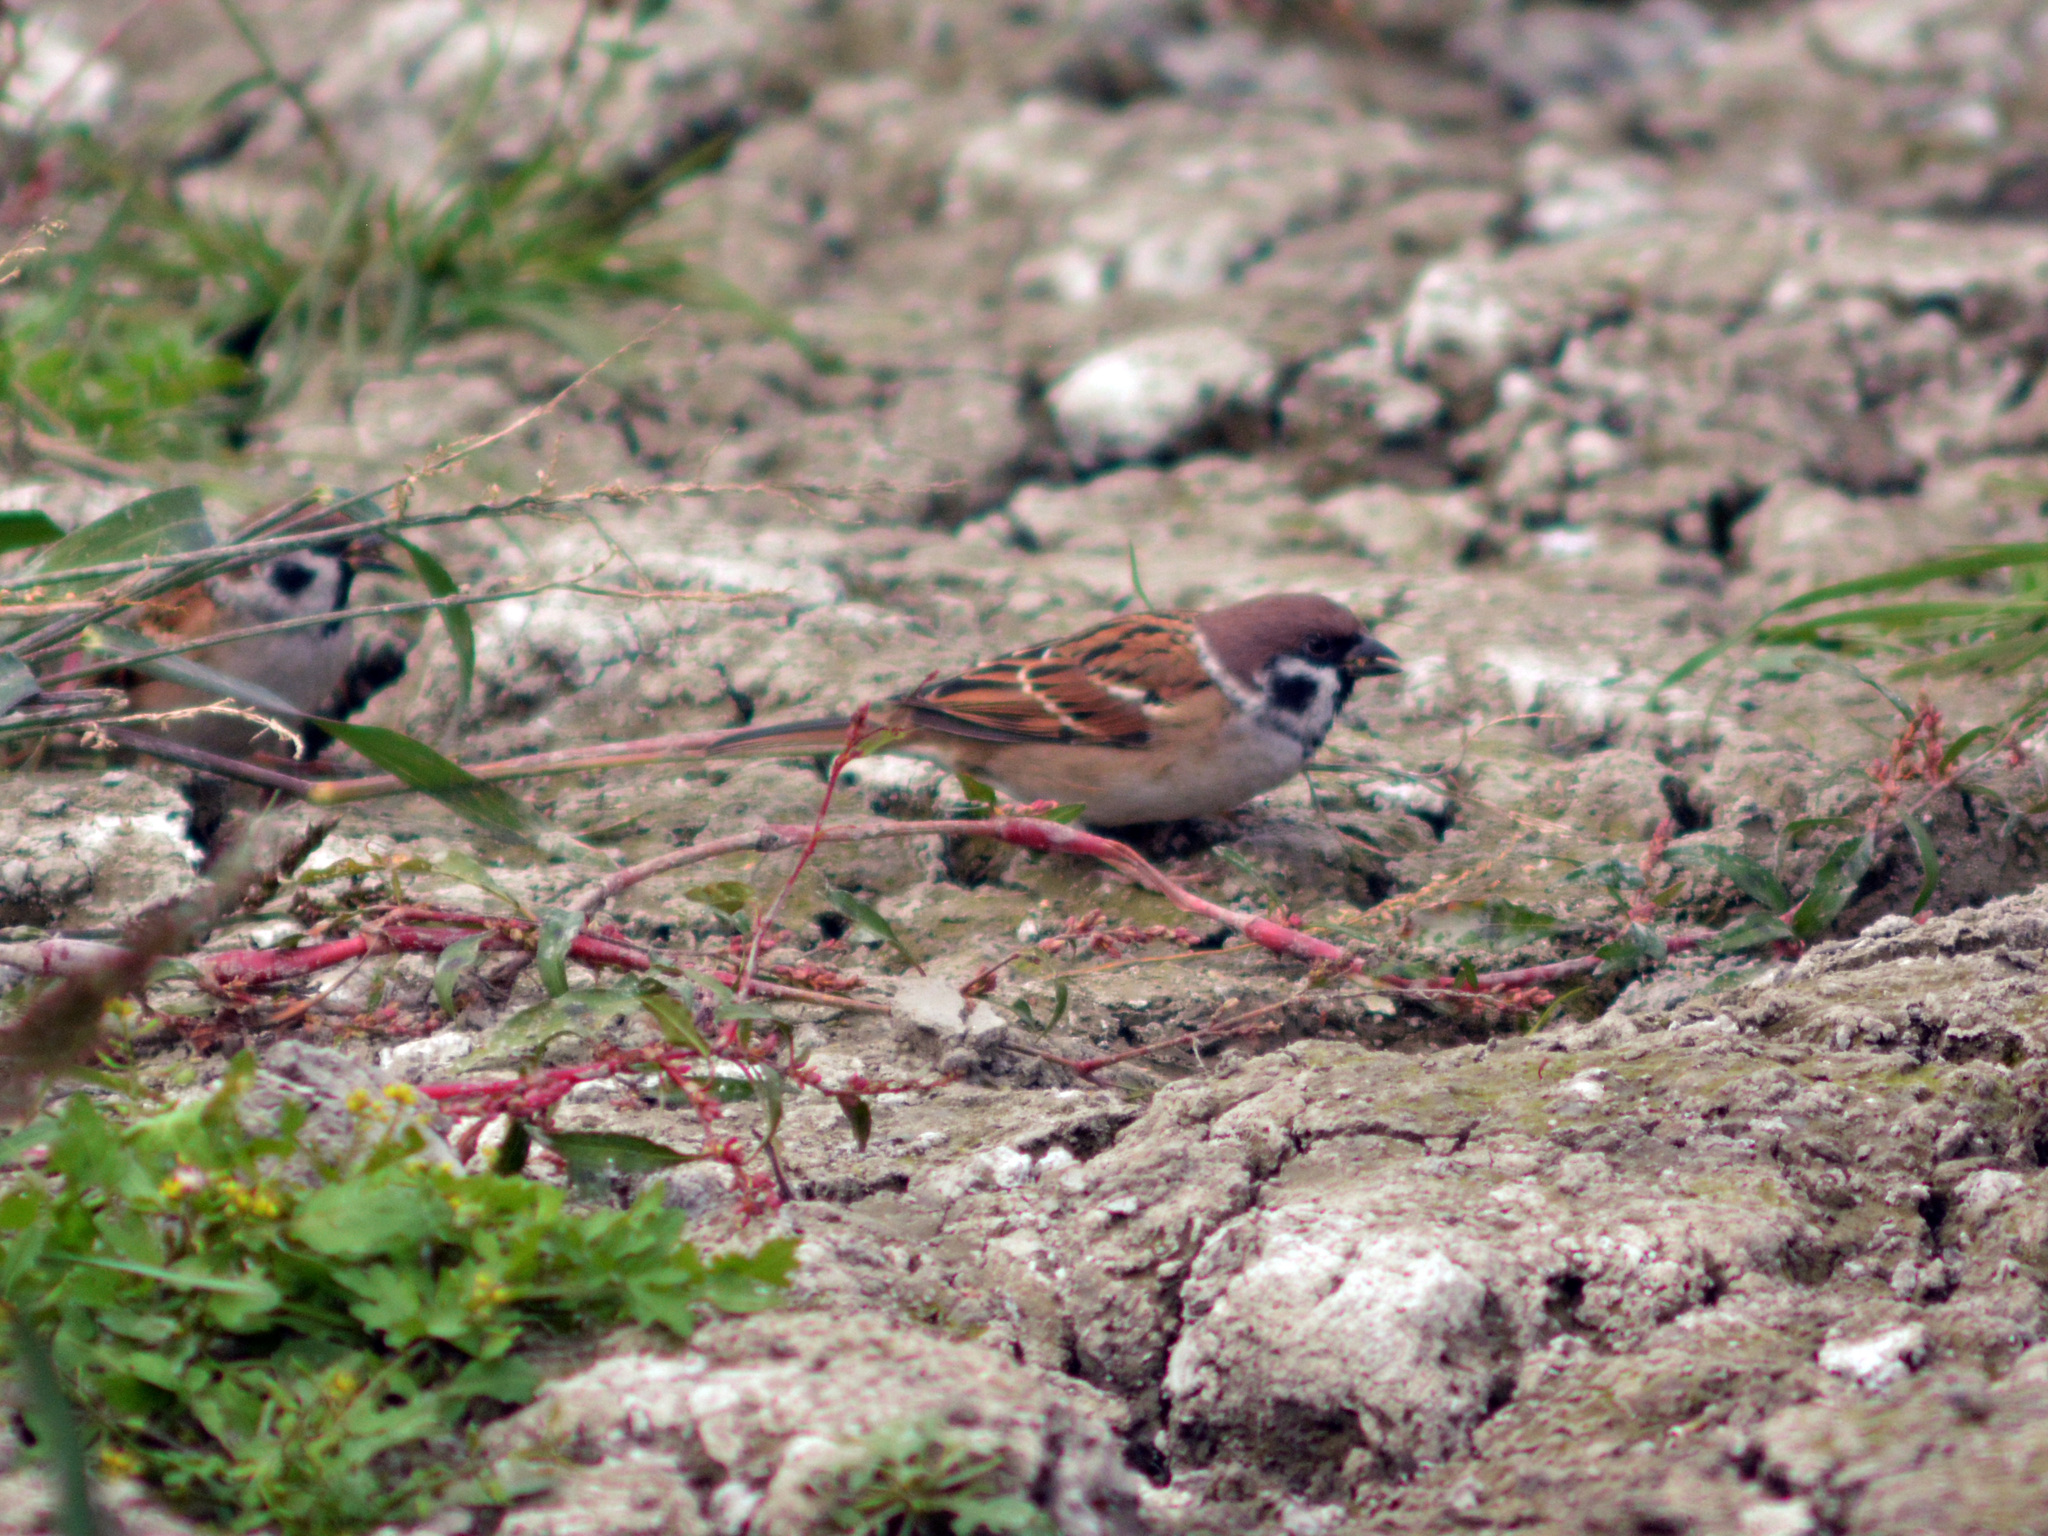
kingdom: Animalia
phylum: Chordata
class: Aves
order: Passeriformes
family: Passeridae
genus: Passer
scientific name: Passer montanus
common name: Eurasian tree sparrow
